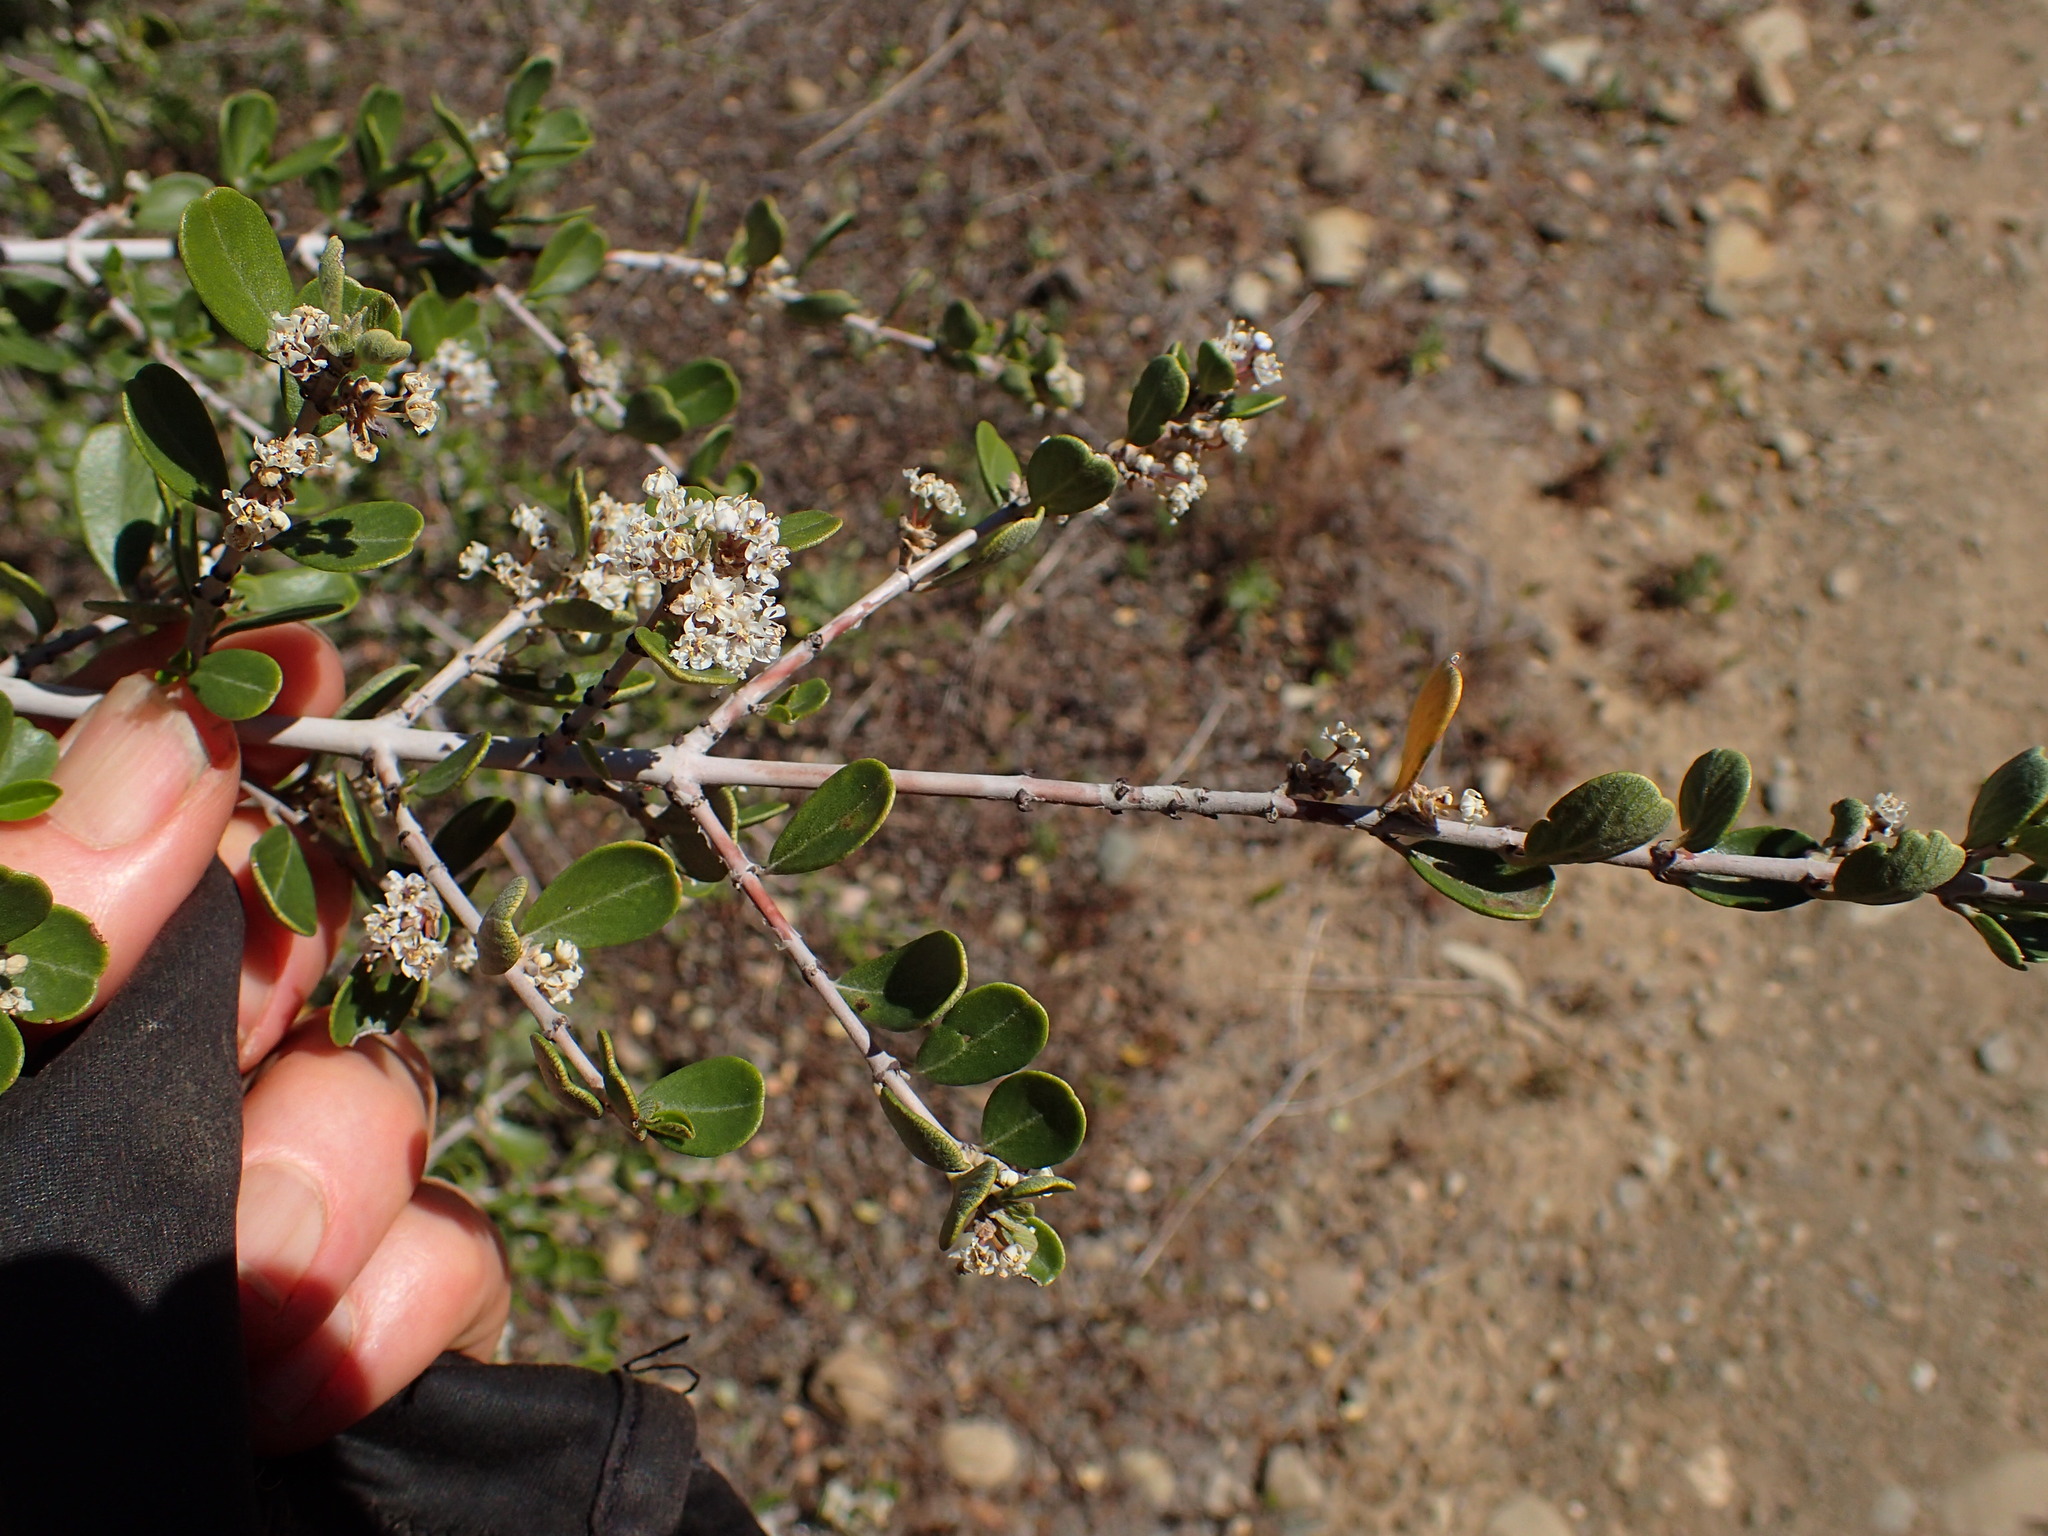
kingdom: Plantae
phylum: Tracheophyta
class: Magnoliopsida
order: Rosales
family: Rhamnaceae
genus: Ceanothus
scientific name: Ceanothus cuneatus
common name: Cuneate ceanothus
